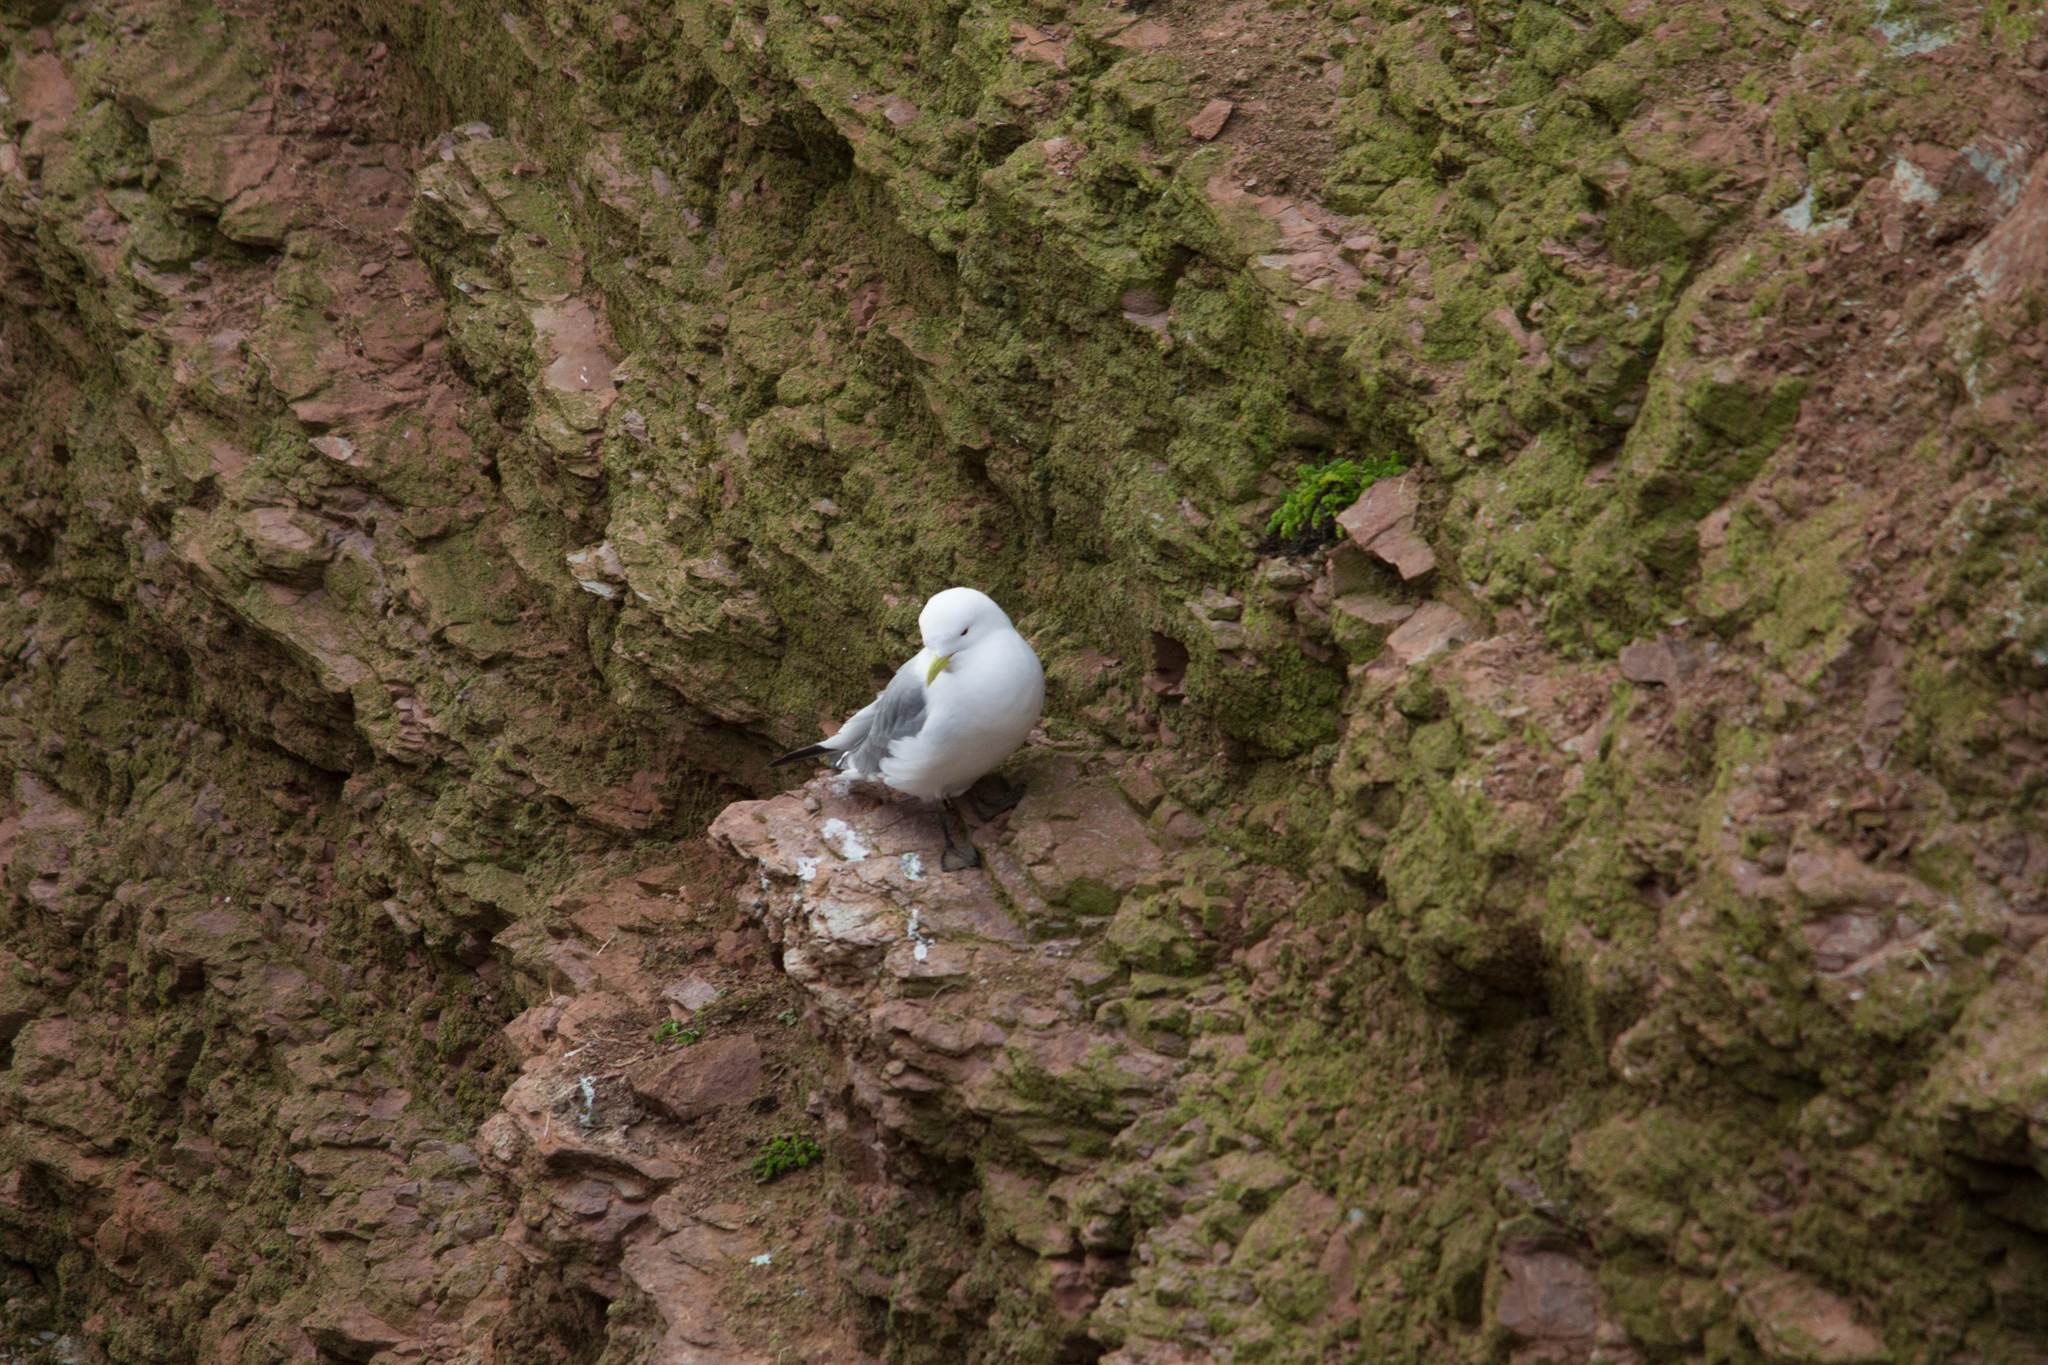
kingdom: Animalia
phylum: Chordata
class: Aves
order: Charadriiformes
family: Laridae
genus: Rissa
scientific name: Rissa tridactyla
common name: Black-legged kittiwake
